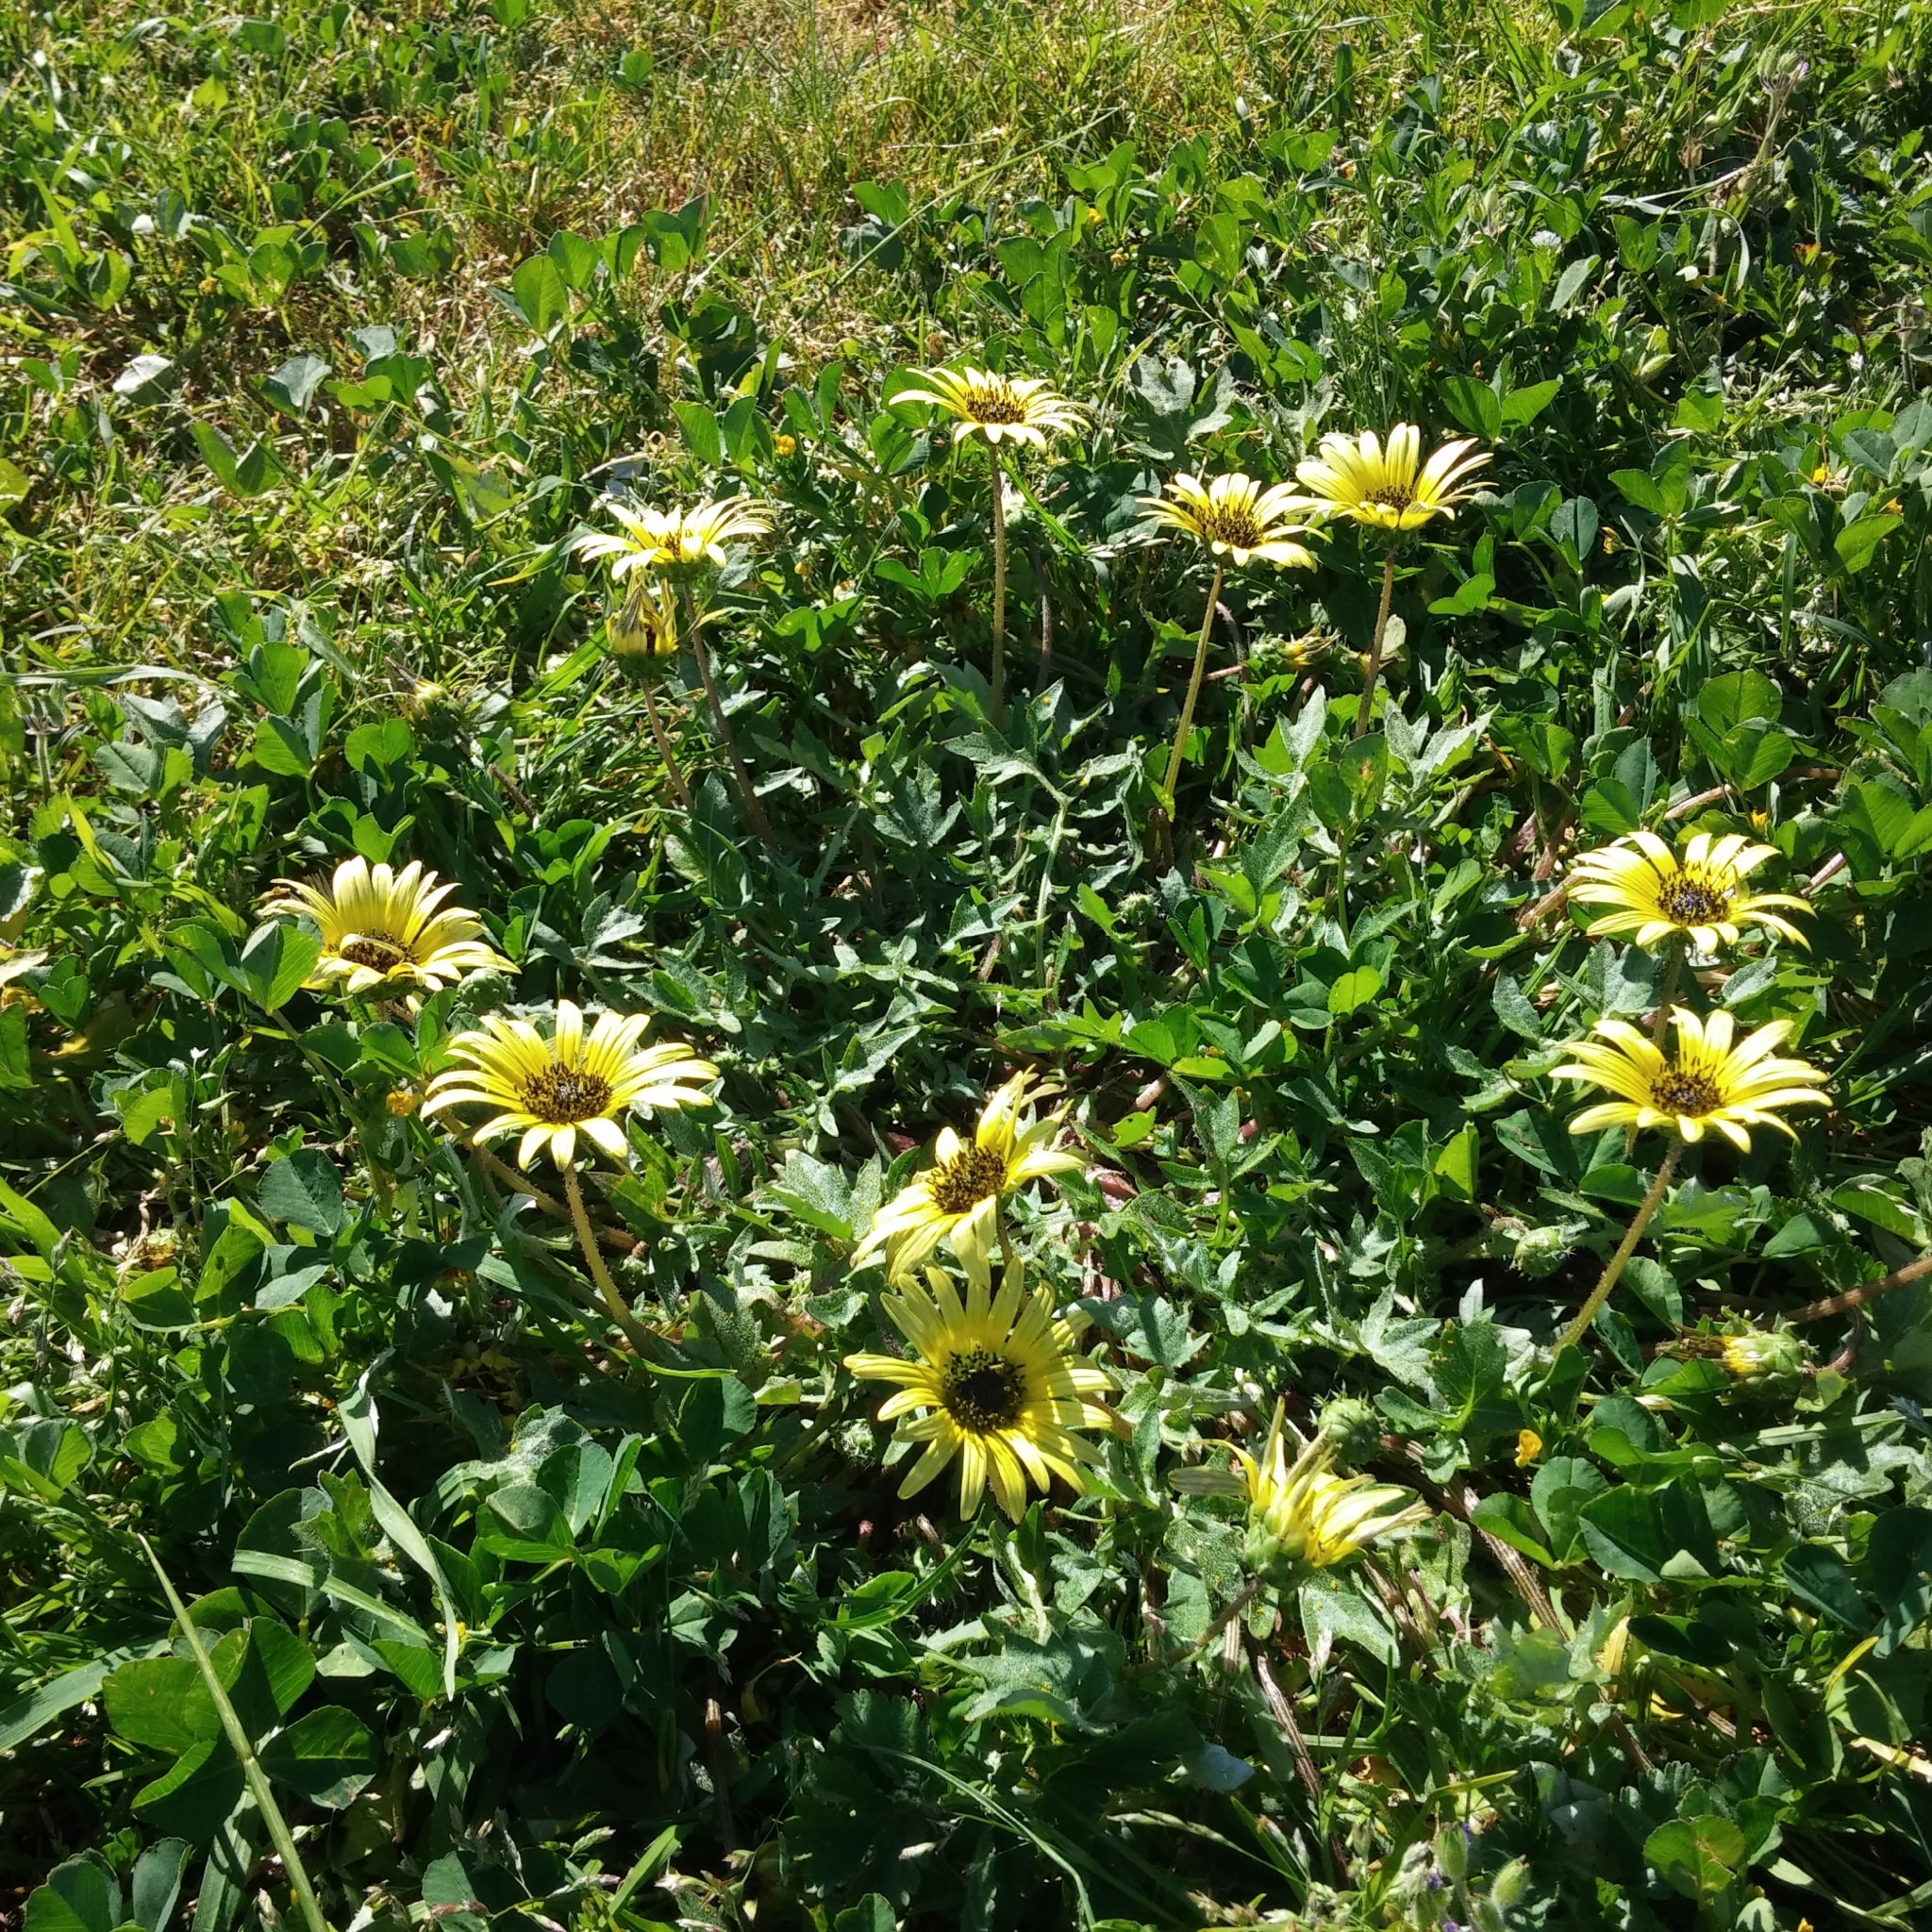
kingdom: Plantae
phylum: Tracheophyta
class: Magnoliopsida
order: Asterales
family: Asteraceae
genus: Arctotheca
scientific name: Arctotheca calendula
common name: Capeweed
